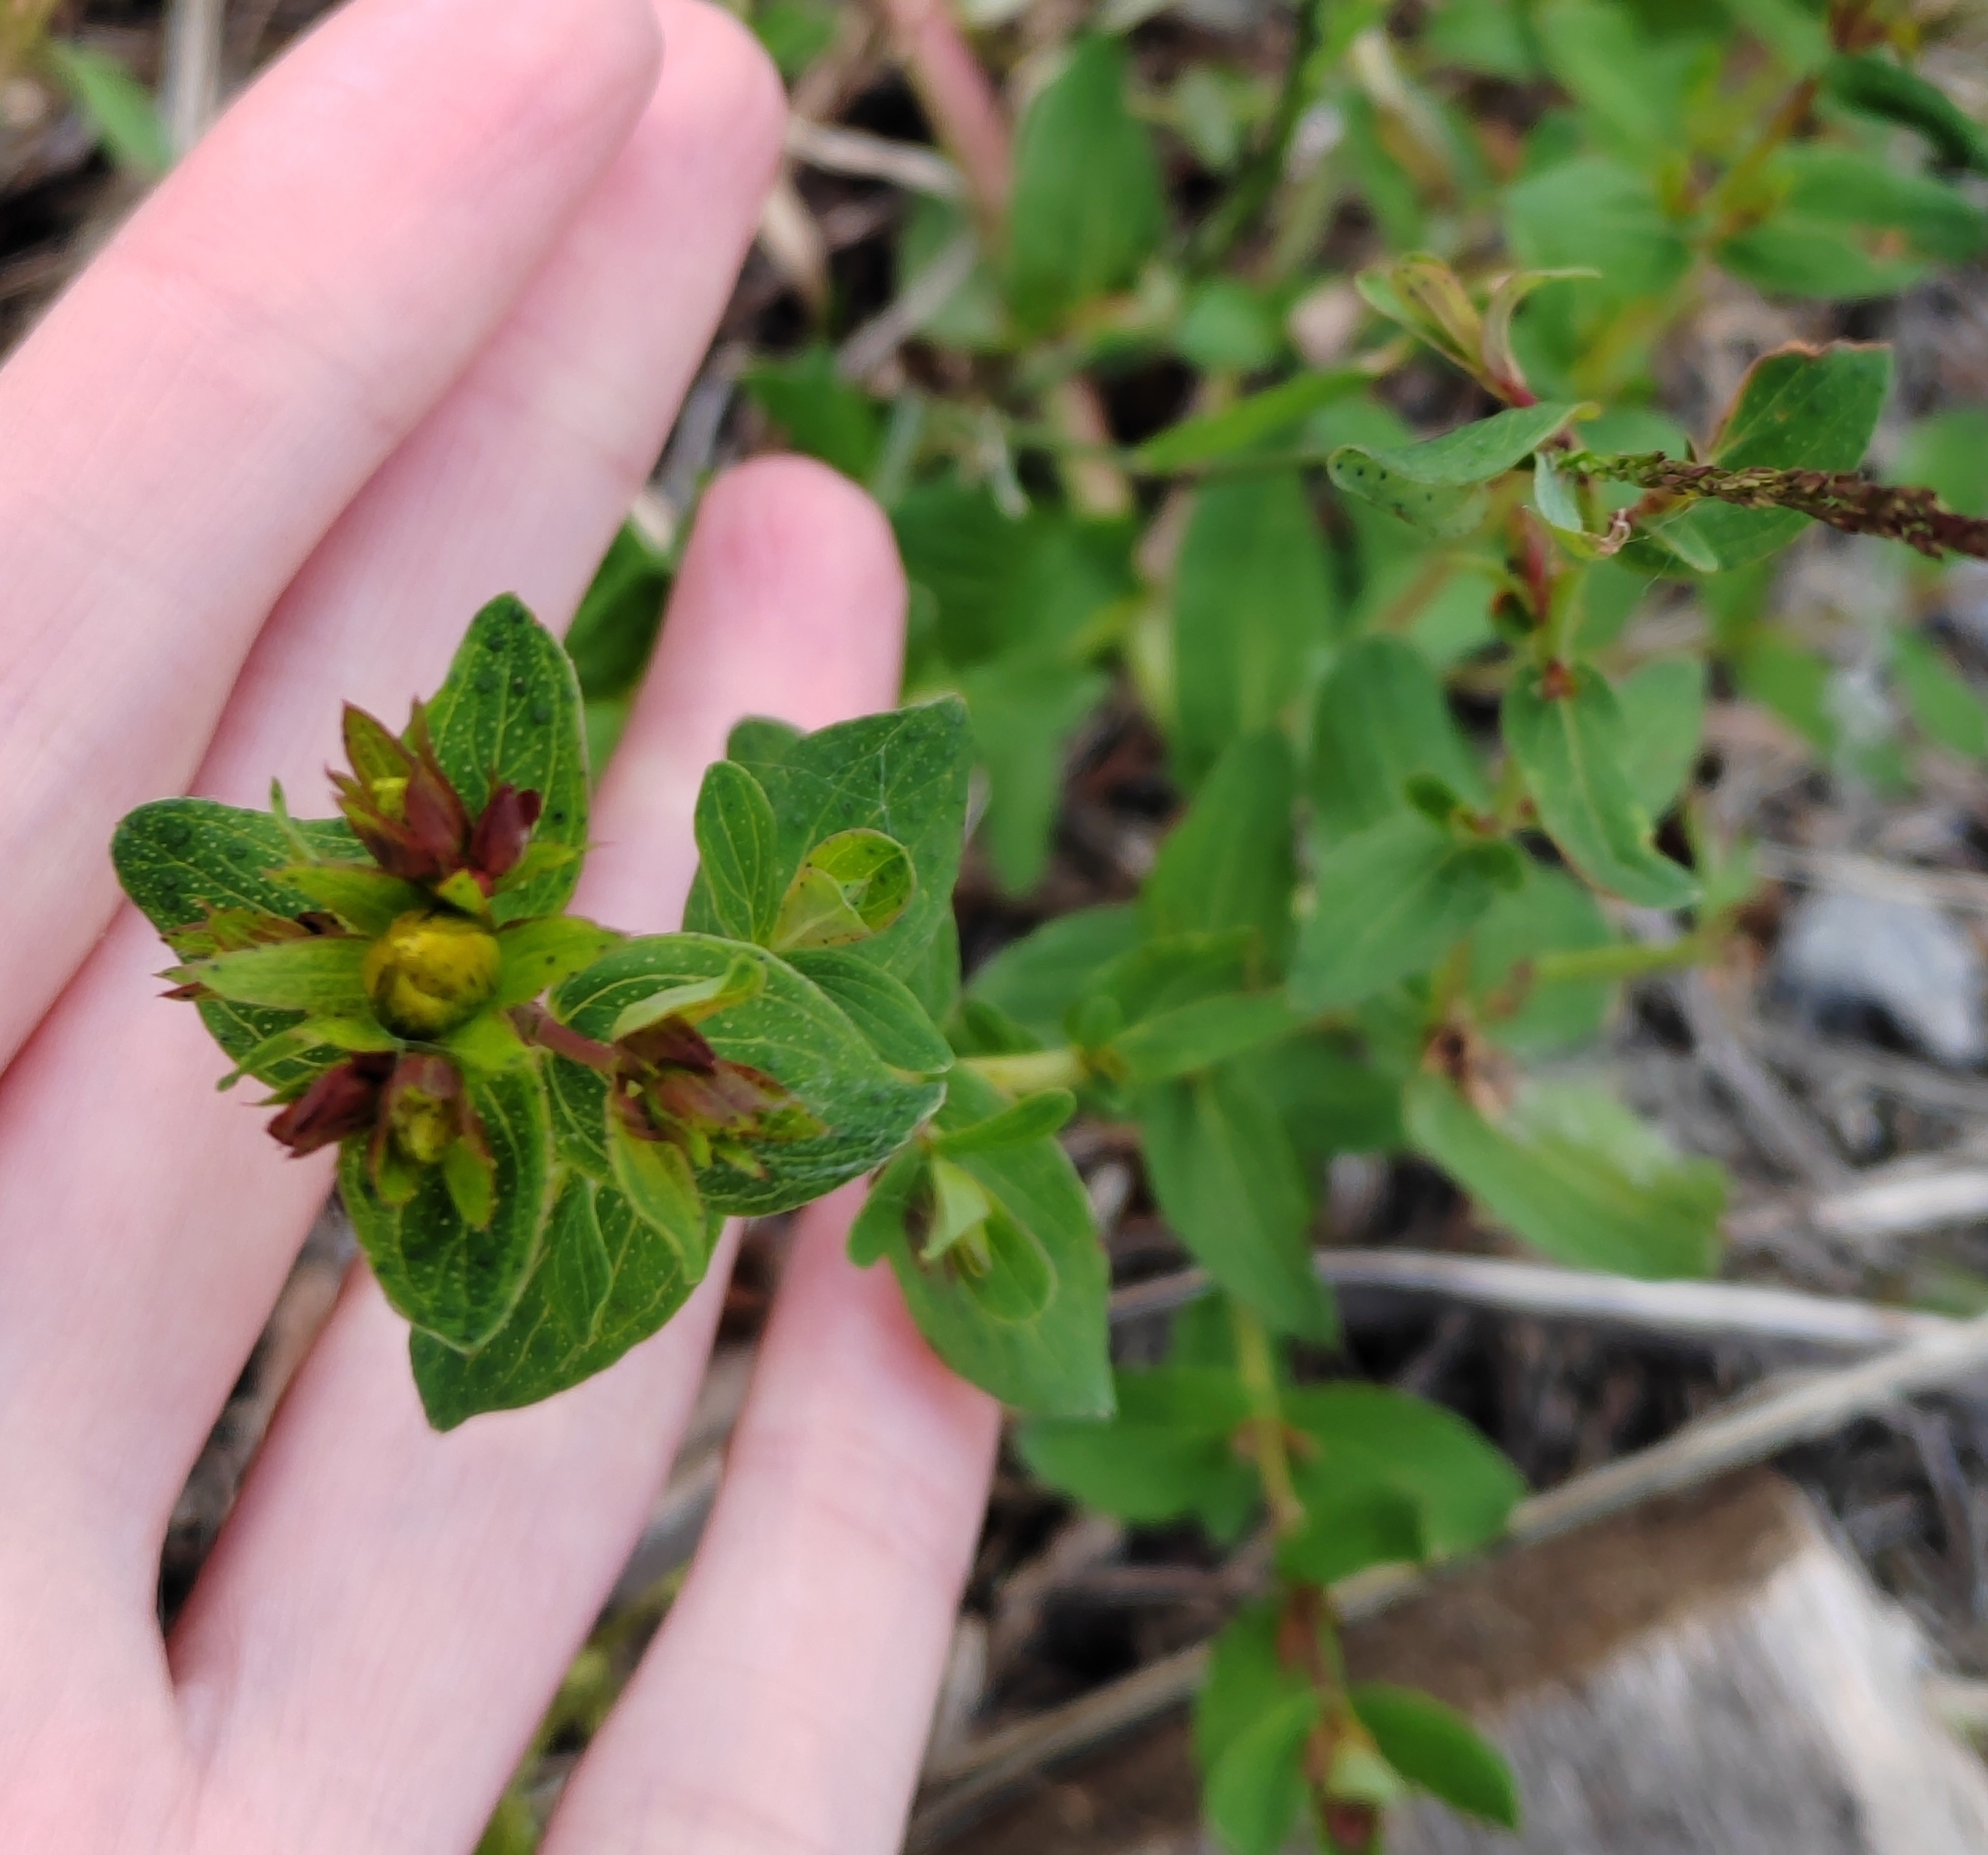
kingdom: Plantae
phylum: Tracheophyta
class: Magnoliopsida
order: Malpighiales
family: Hypericaceae
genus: Hypericum
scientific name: Hypericum perforatum
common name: Common st. johnswort
